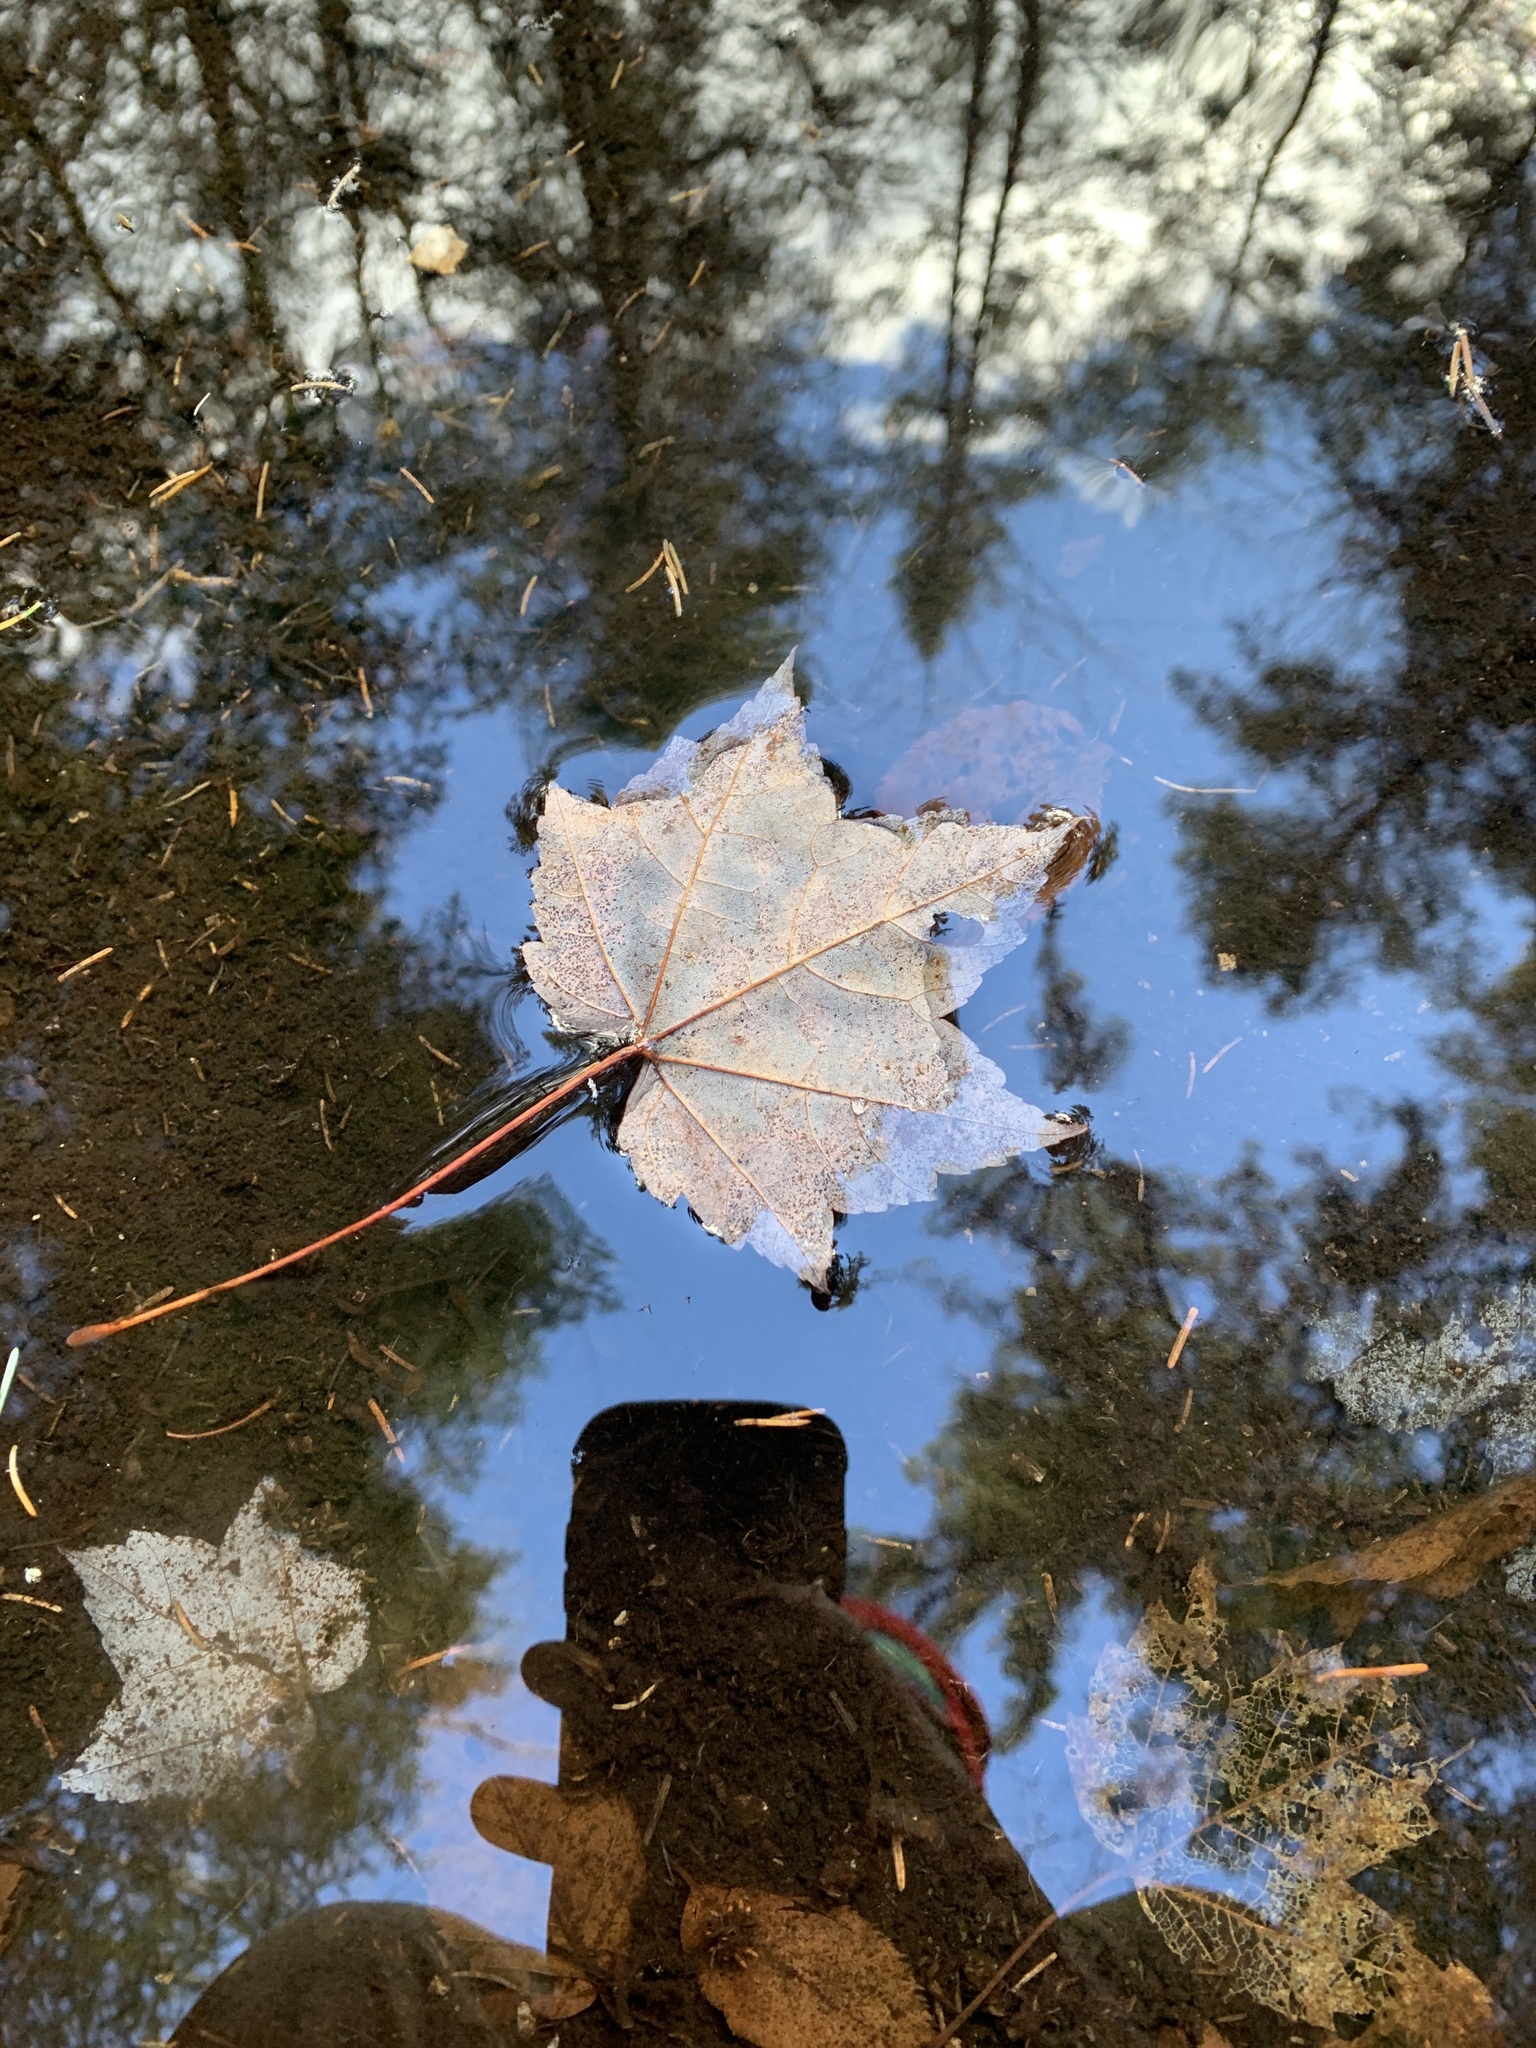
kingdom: Plantae
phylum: Tracheophyta
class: Magnoliopsida
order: Sapindales
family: Sapindaceae
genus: Acer
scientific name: Acer rubrum
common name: Red maple
